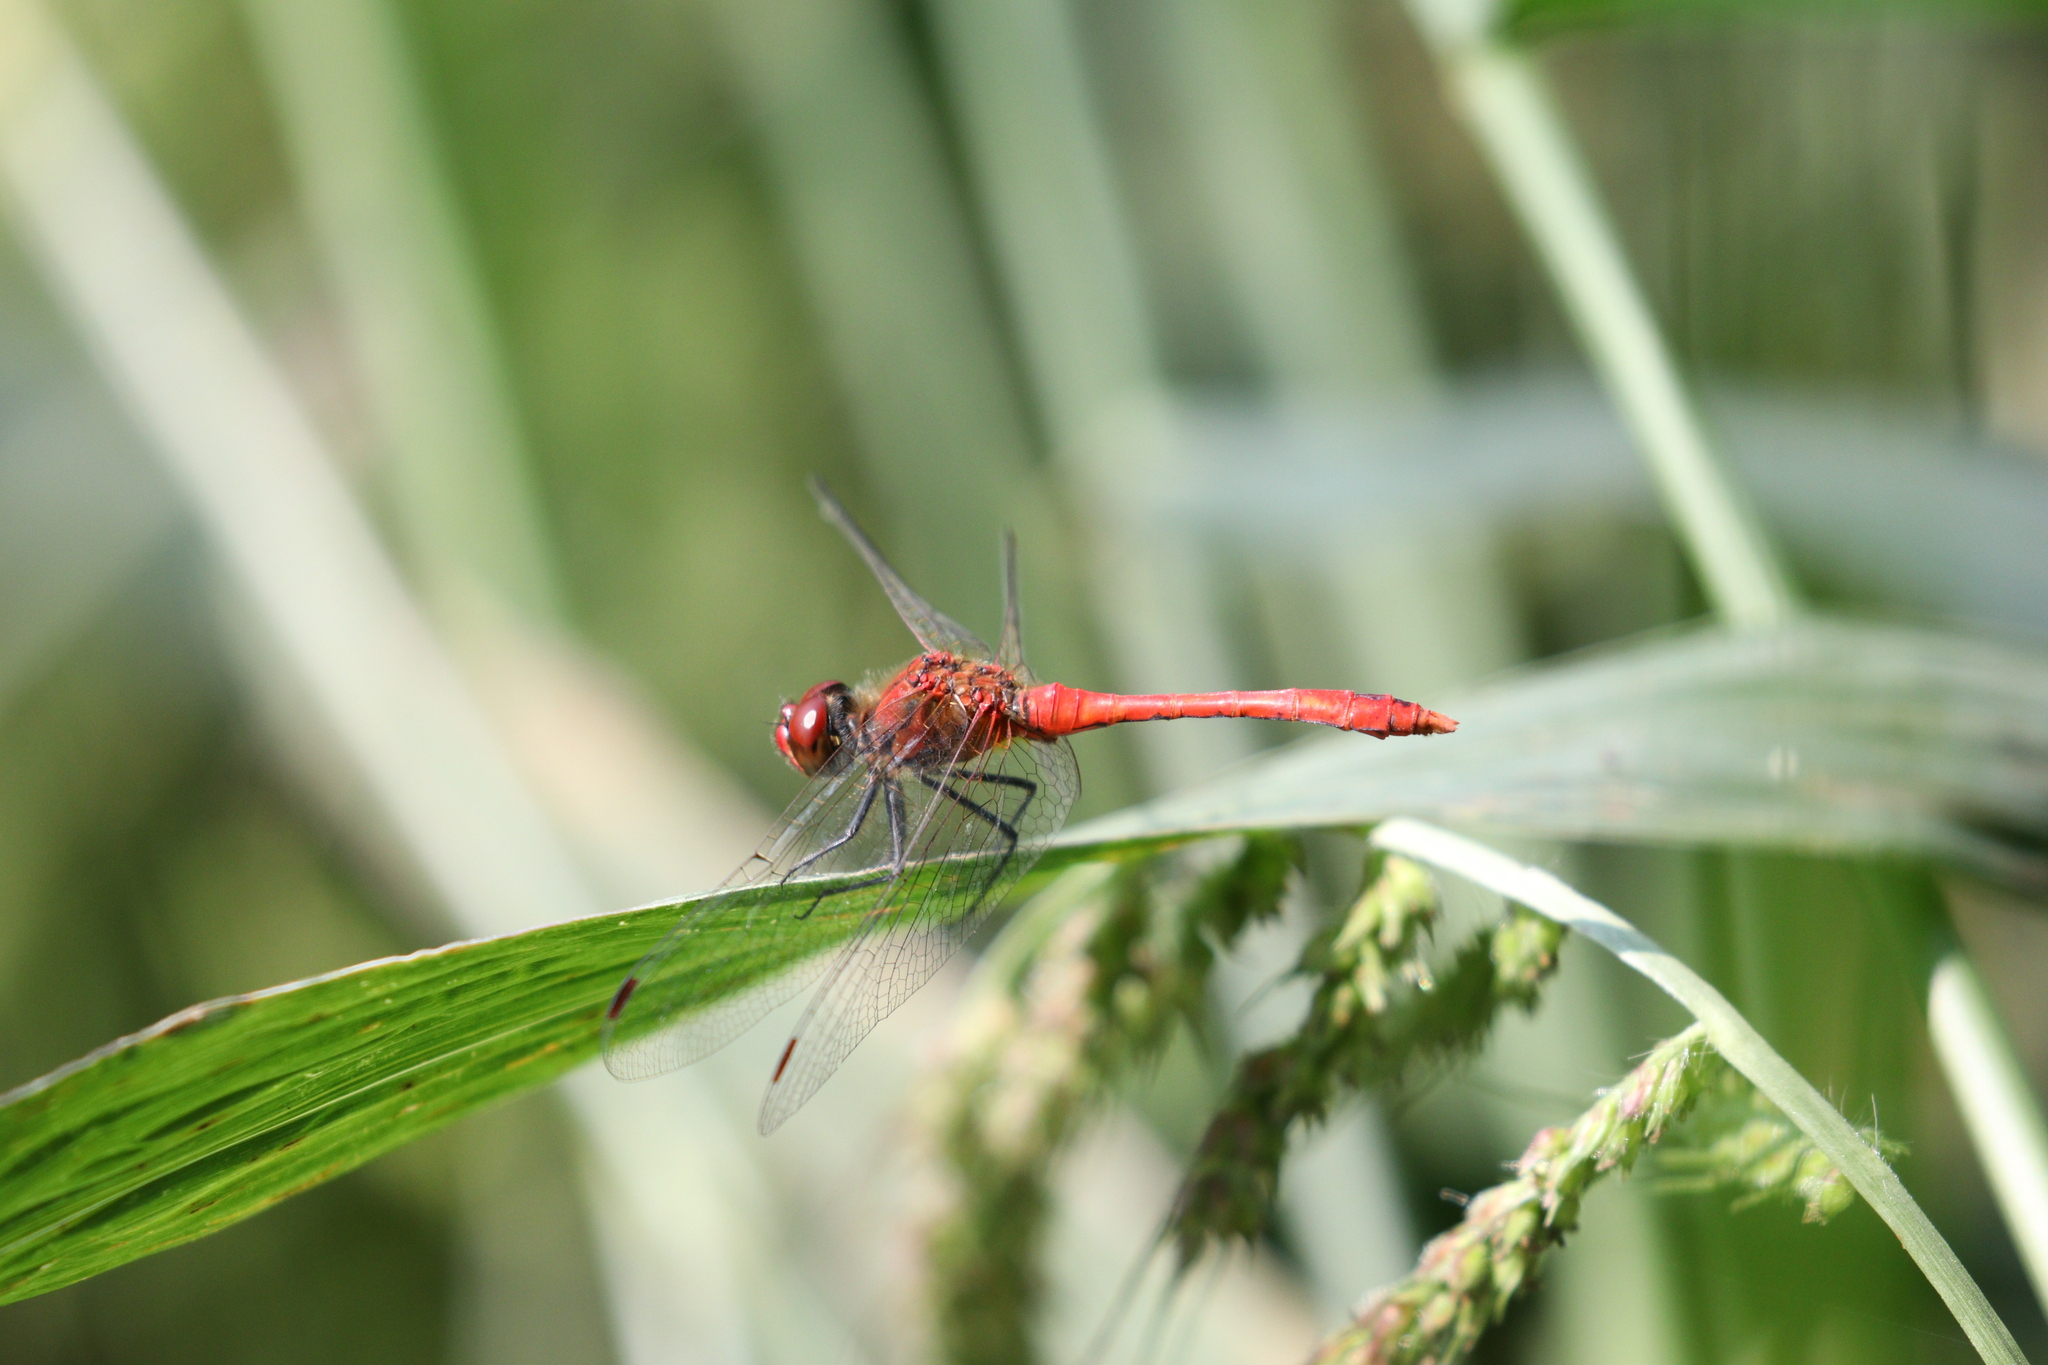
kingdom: Animalia
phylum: Arthropoda
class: Insecta
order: Odonata
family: Libellulidae
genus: Sympetrum
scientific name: Sympetrum sanguineum
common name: Ruddy darter
